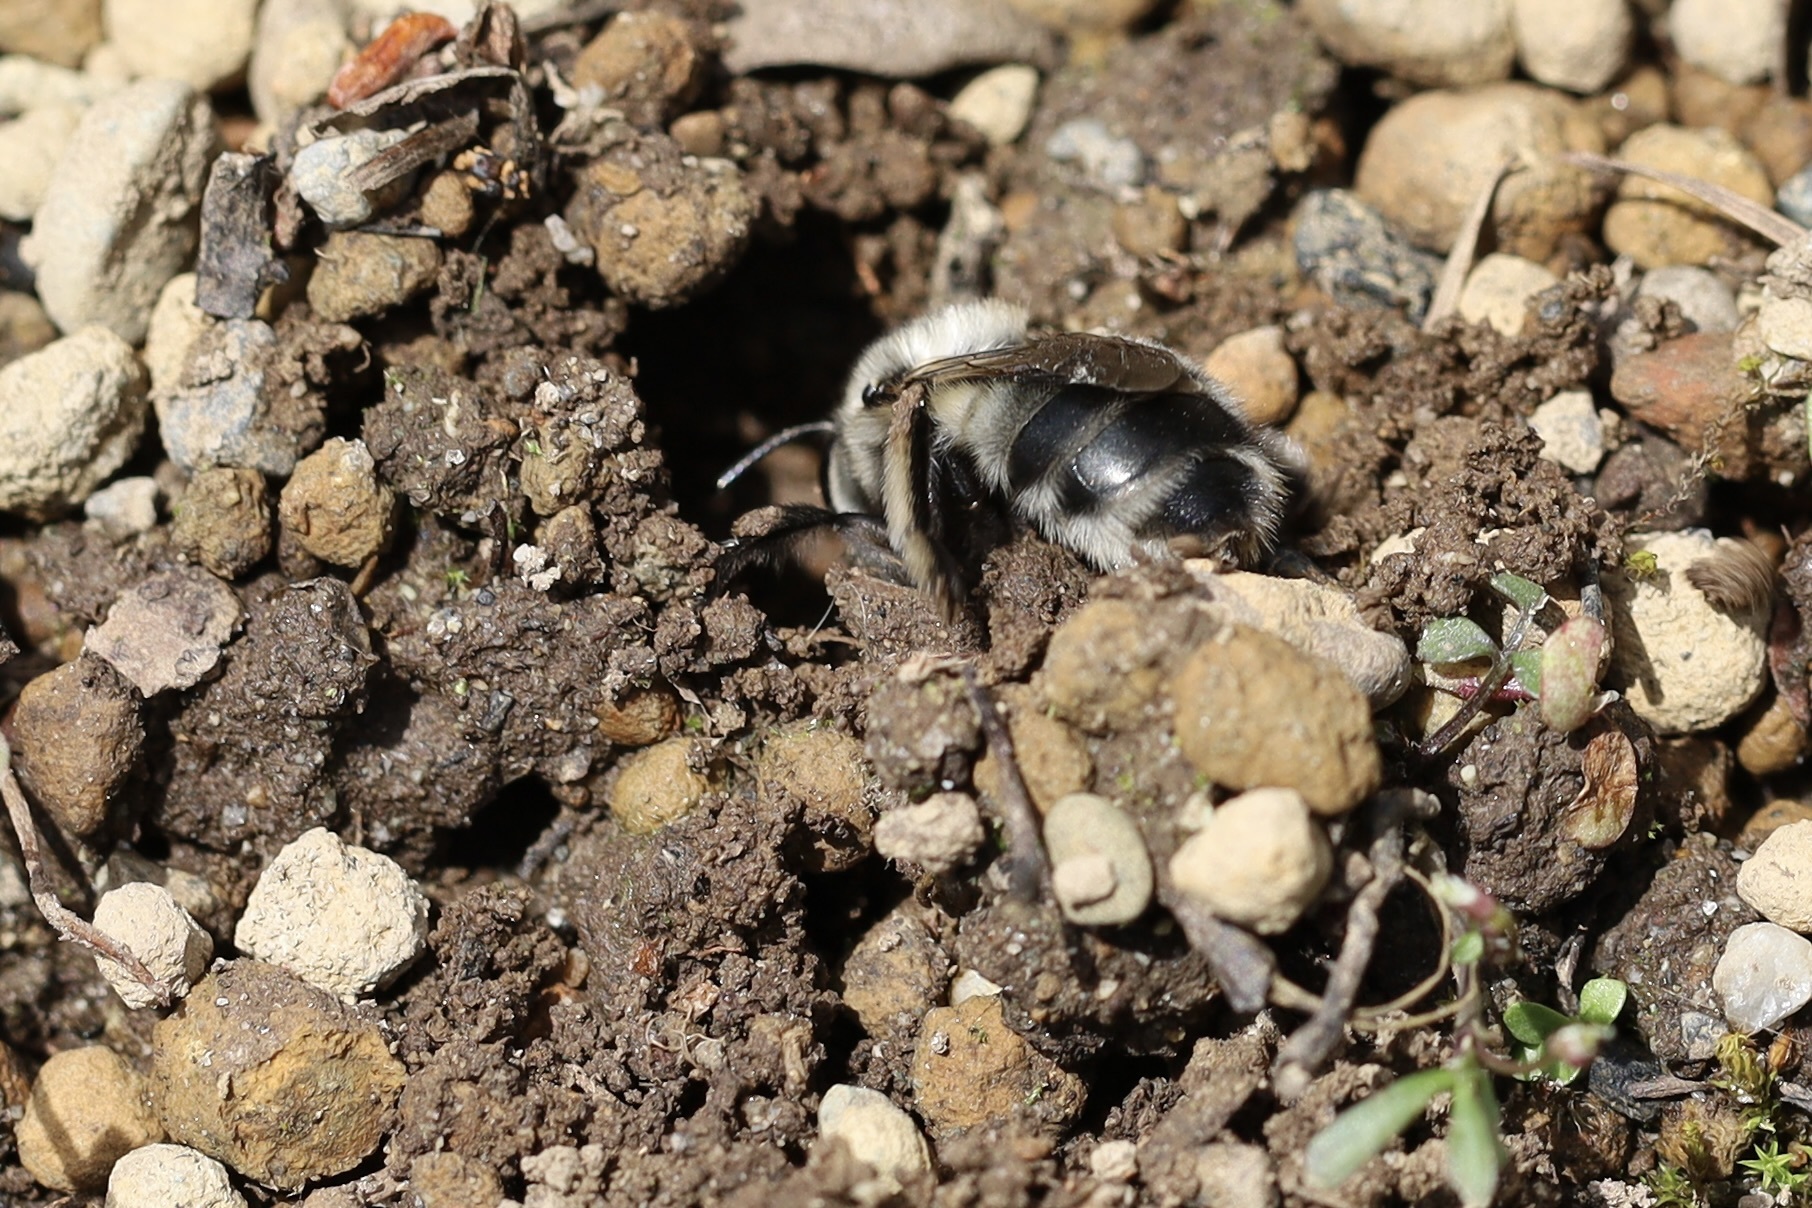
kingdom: Animalia
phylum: Arthropoda
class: Insecta
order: Hymenoptera
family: Apidae
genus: Anthophora
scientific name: Anthophora pacifica
